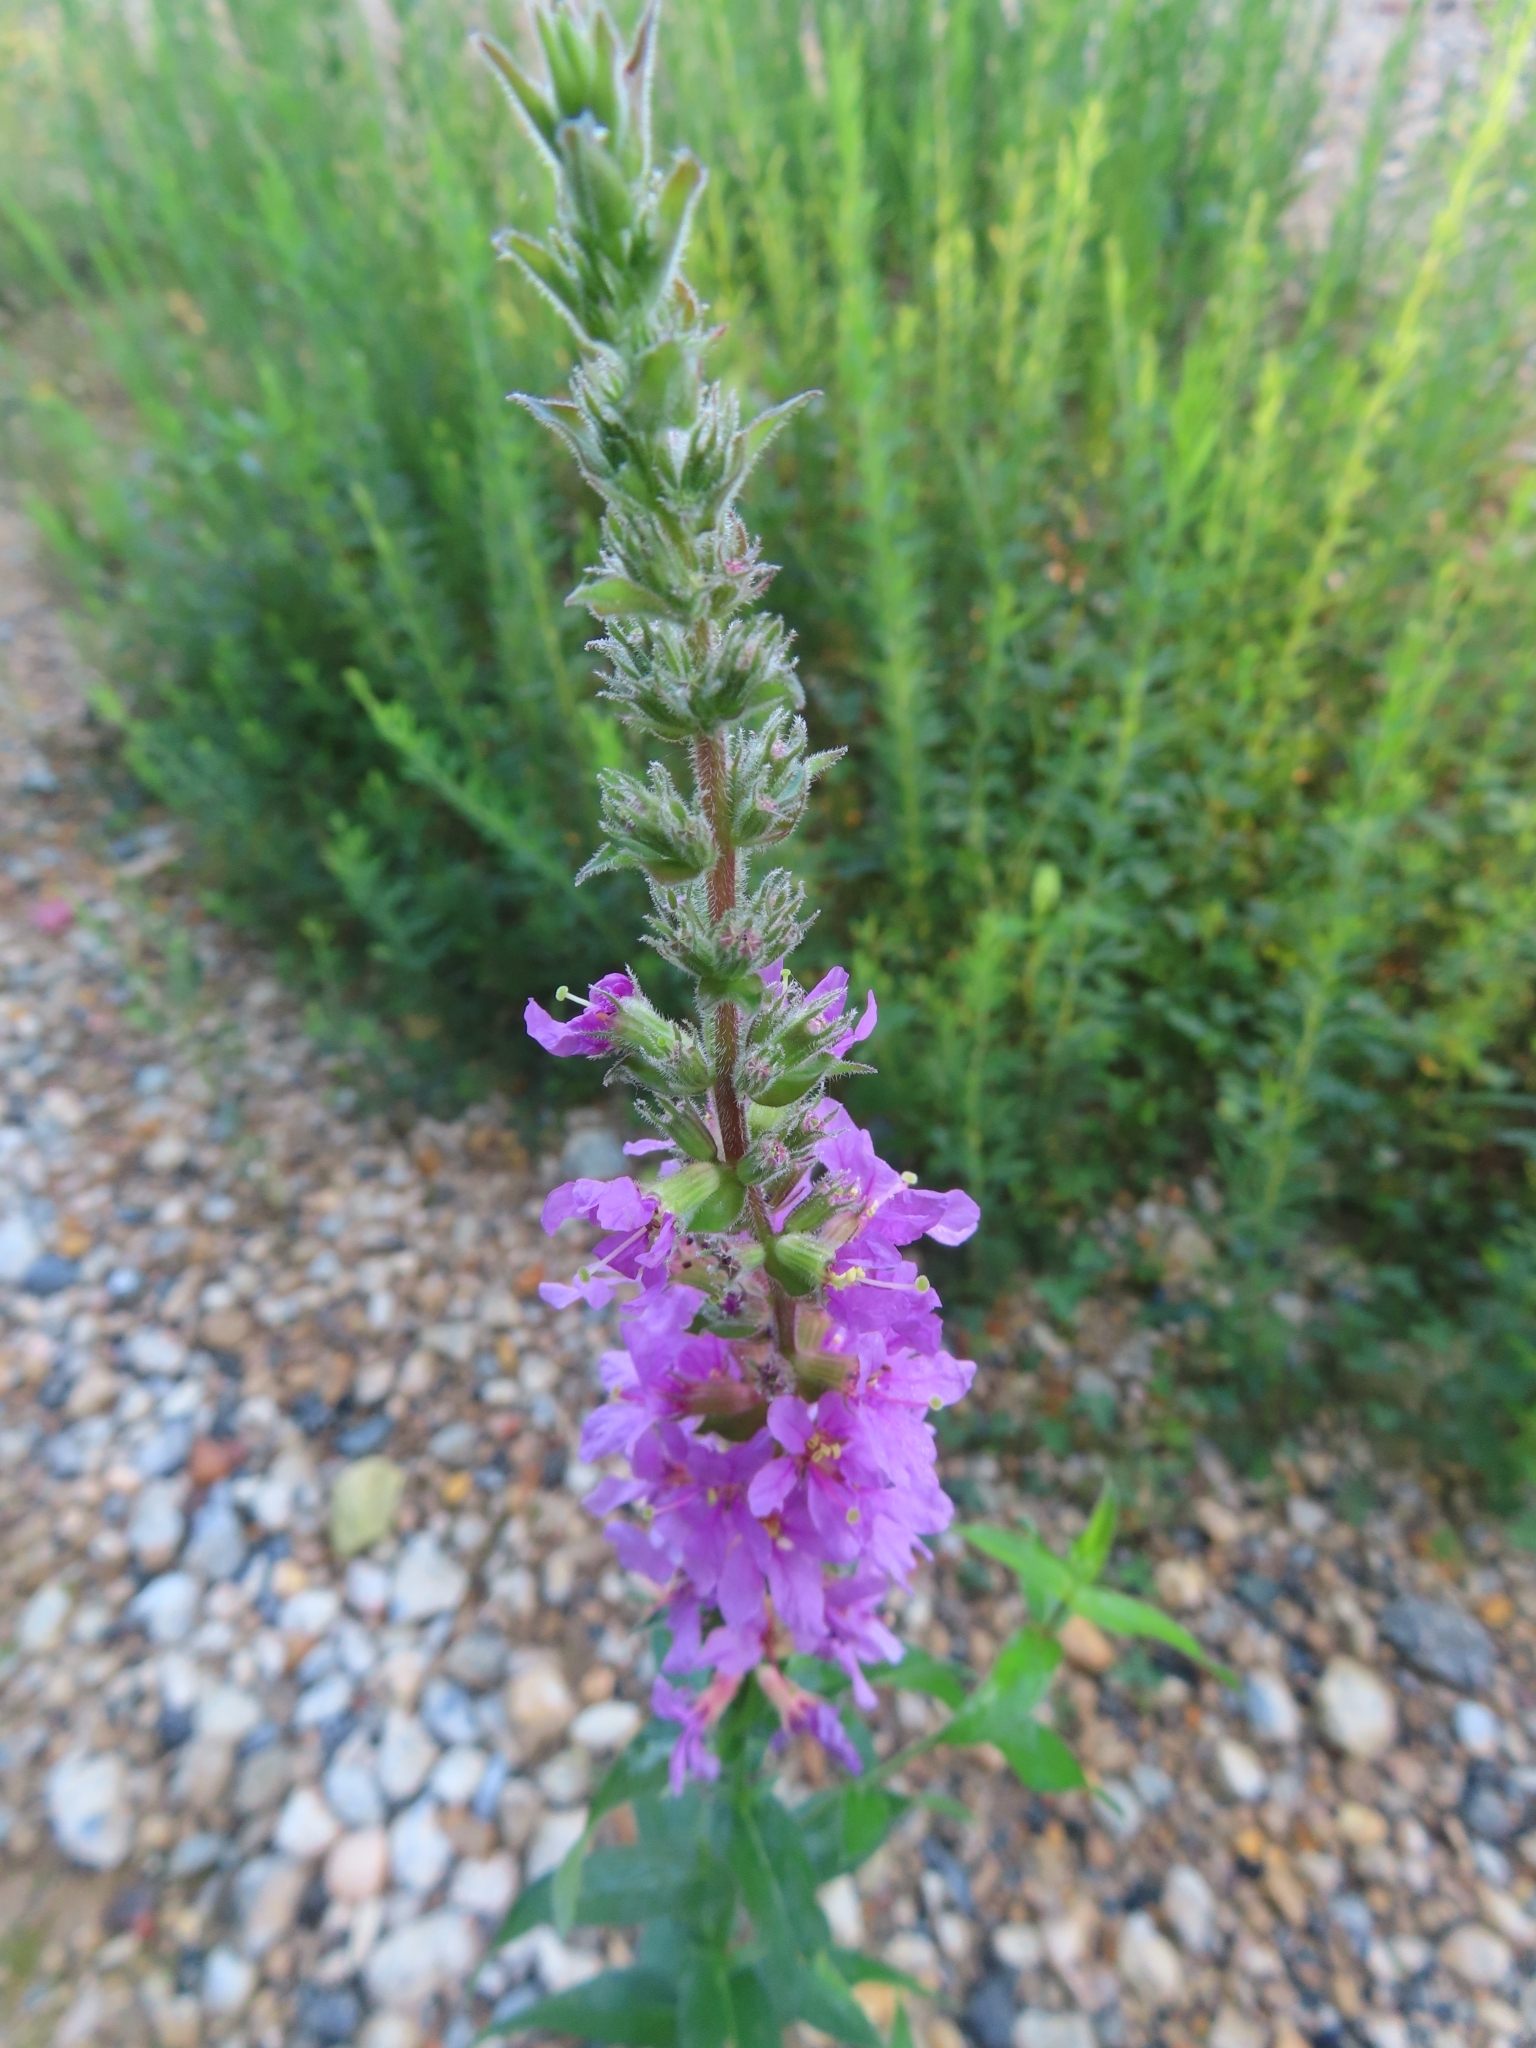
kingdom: Plantae
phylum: Tracheophyta
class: Magnoliopsida
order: Myrtales
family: Lythraceae
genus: Lythrum
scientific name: Lythrum salicaria
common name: Purple loosestrife
